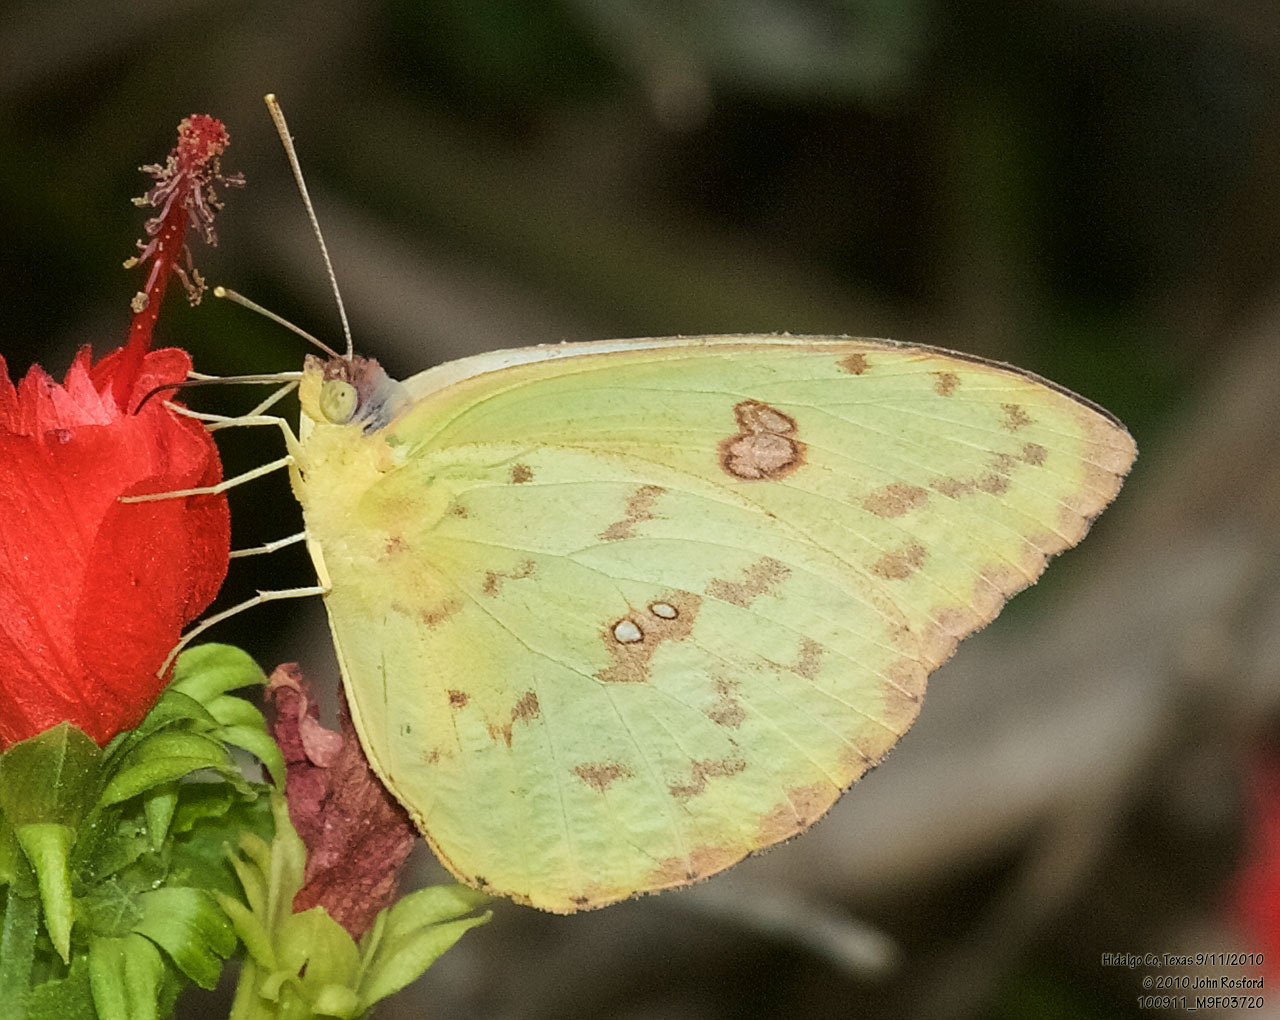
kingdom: Animalia
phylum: Arthropoda
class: Insecta
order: Lepidoptera
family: Pieridae
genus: Phoebis
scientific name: Phoebis sennae
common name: Cloudless sulphur
